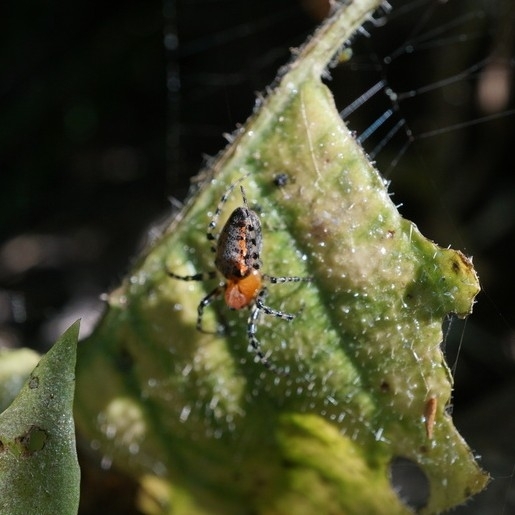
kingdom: Animalia
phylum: Arthropoda
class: Arachnida
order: Araneae
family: Araneidae
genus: Alpaida
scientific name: Alpaida gallardoi
